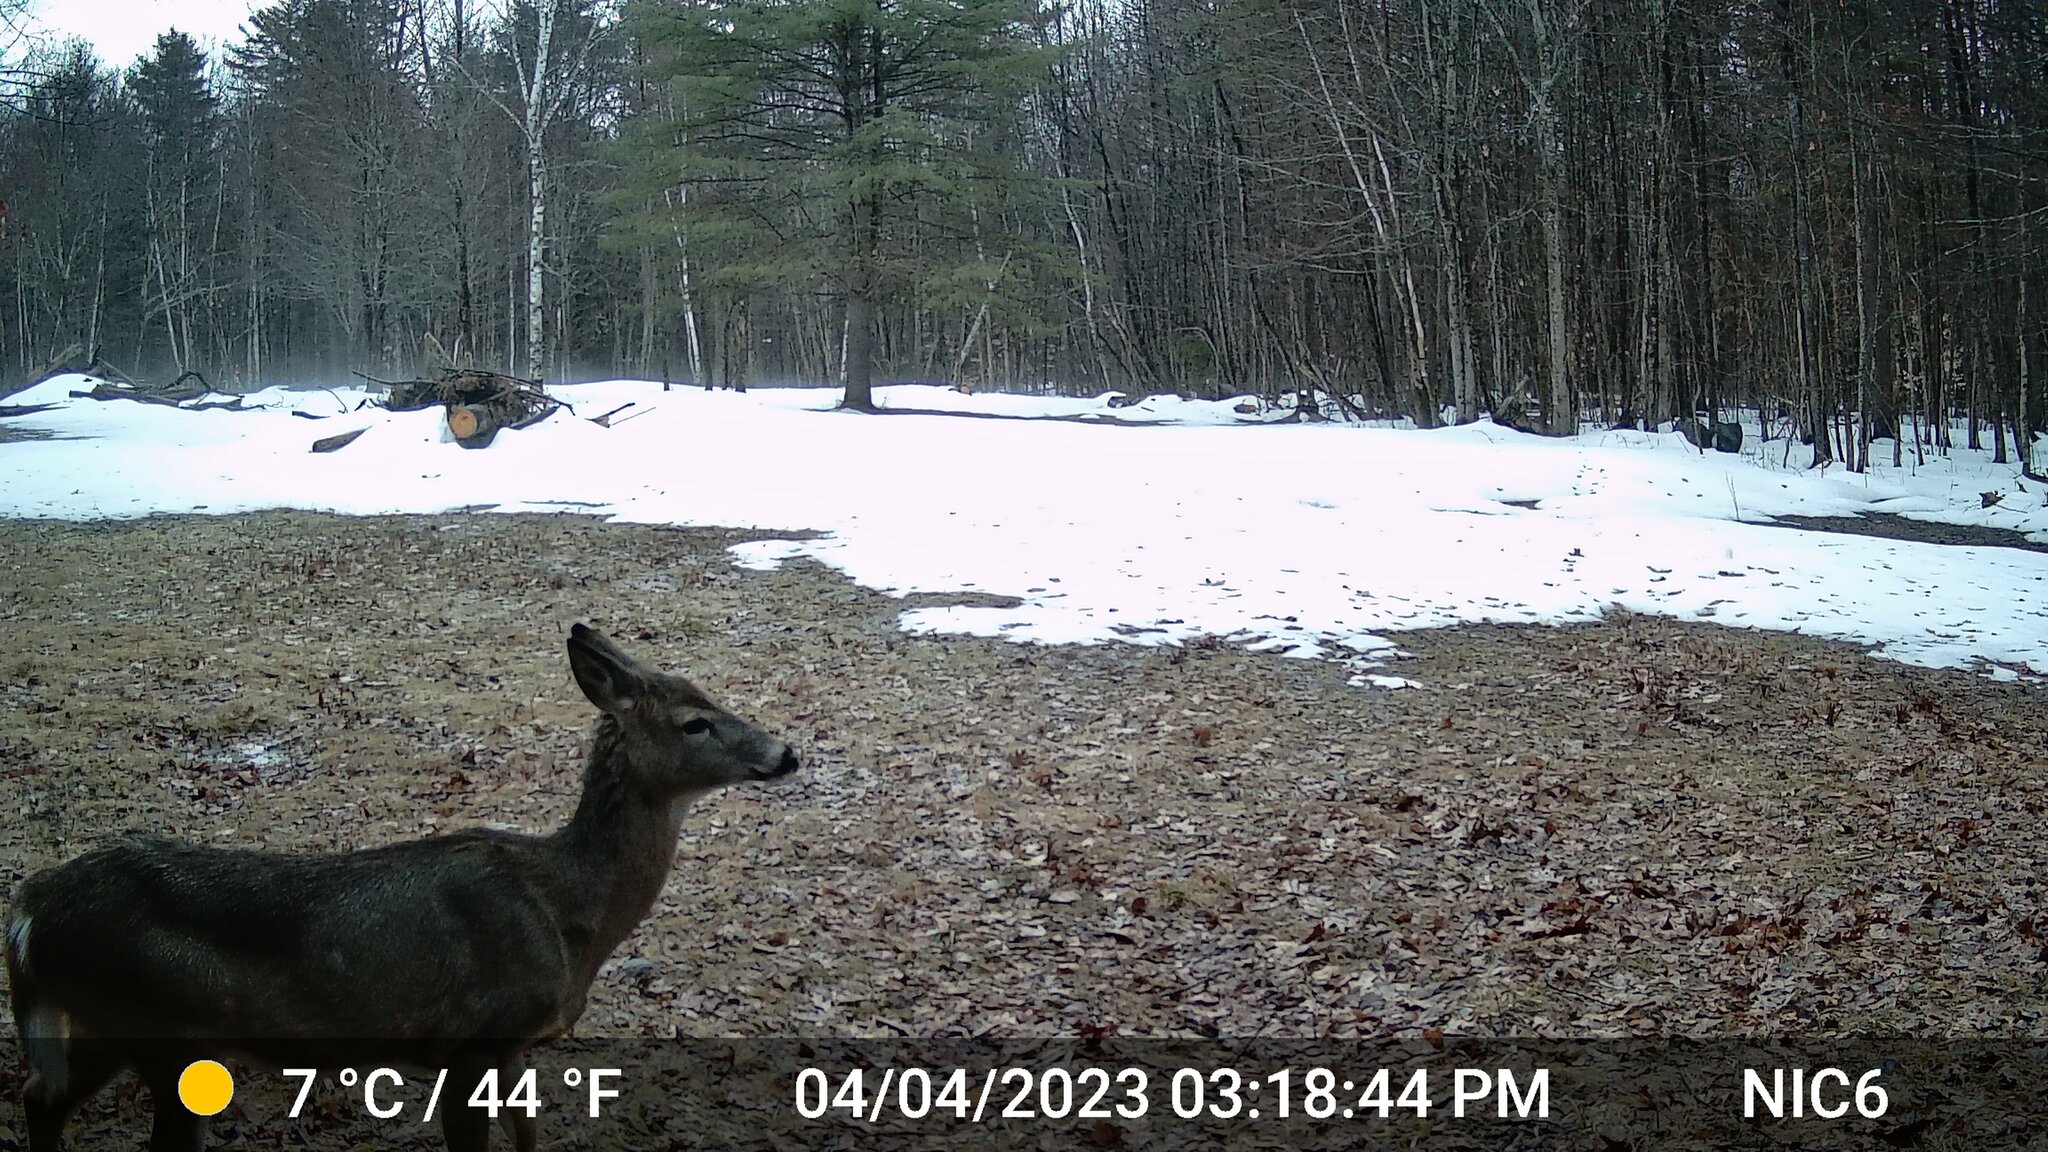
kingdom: Animalia
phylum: Chordata
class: Mammalia
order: Artiodactyla
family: Cervidae
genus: Odocoileus
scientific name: Odocoileus virginianus
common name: White-tailed deer
